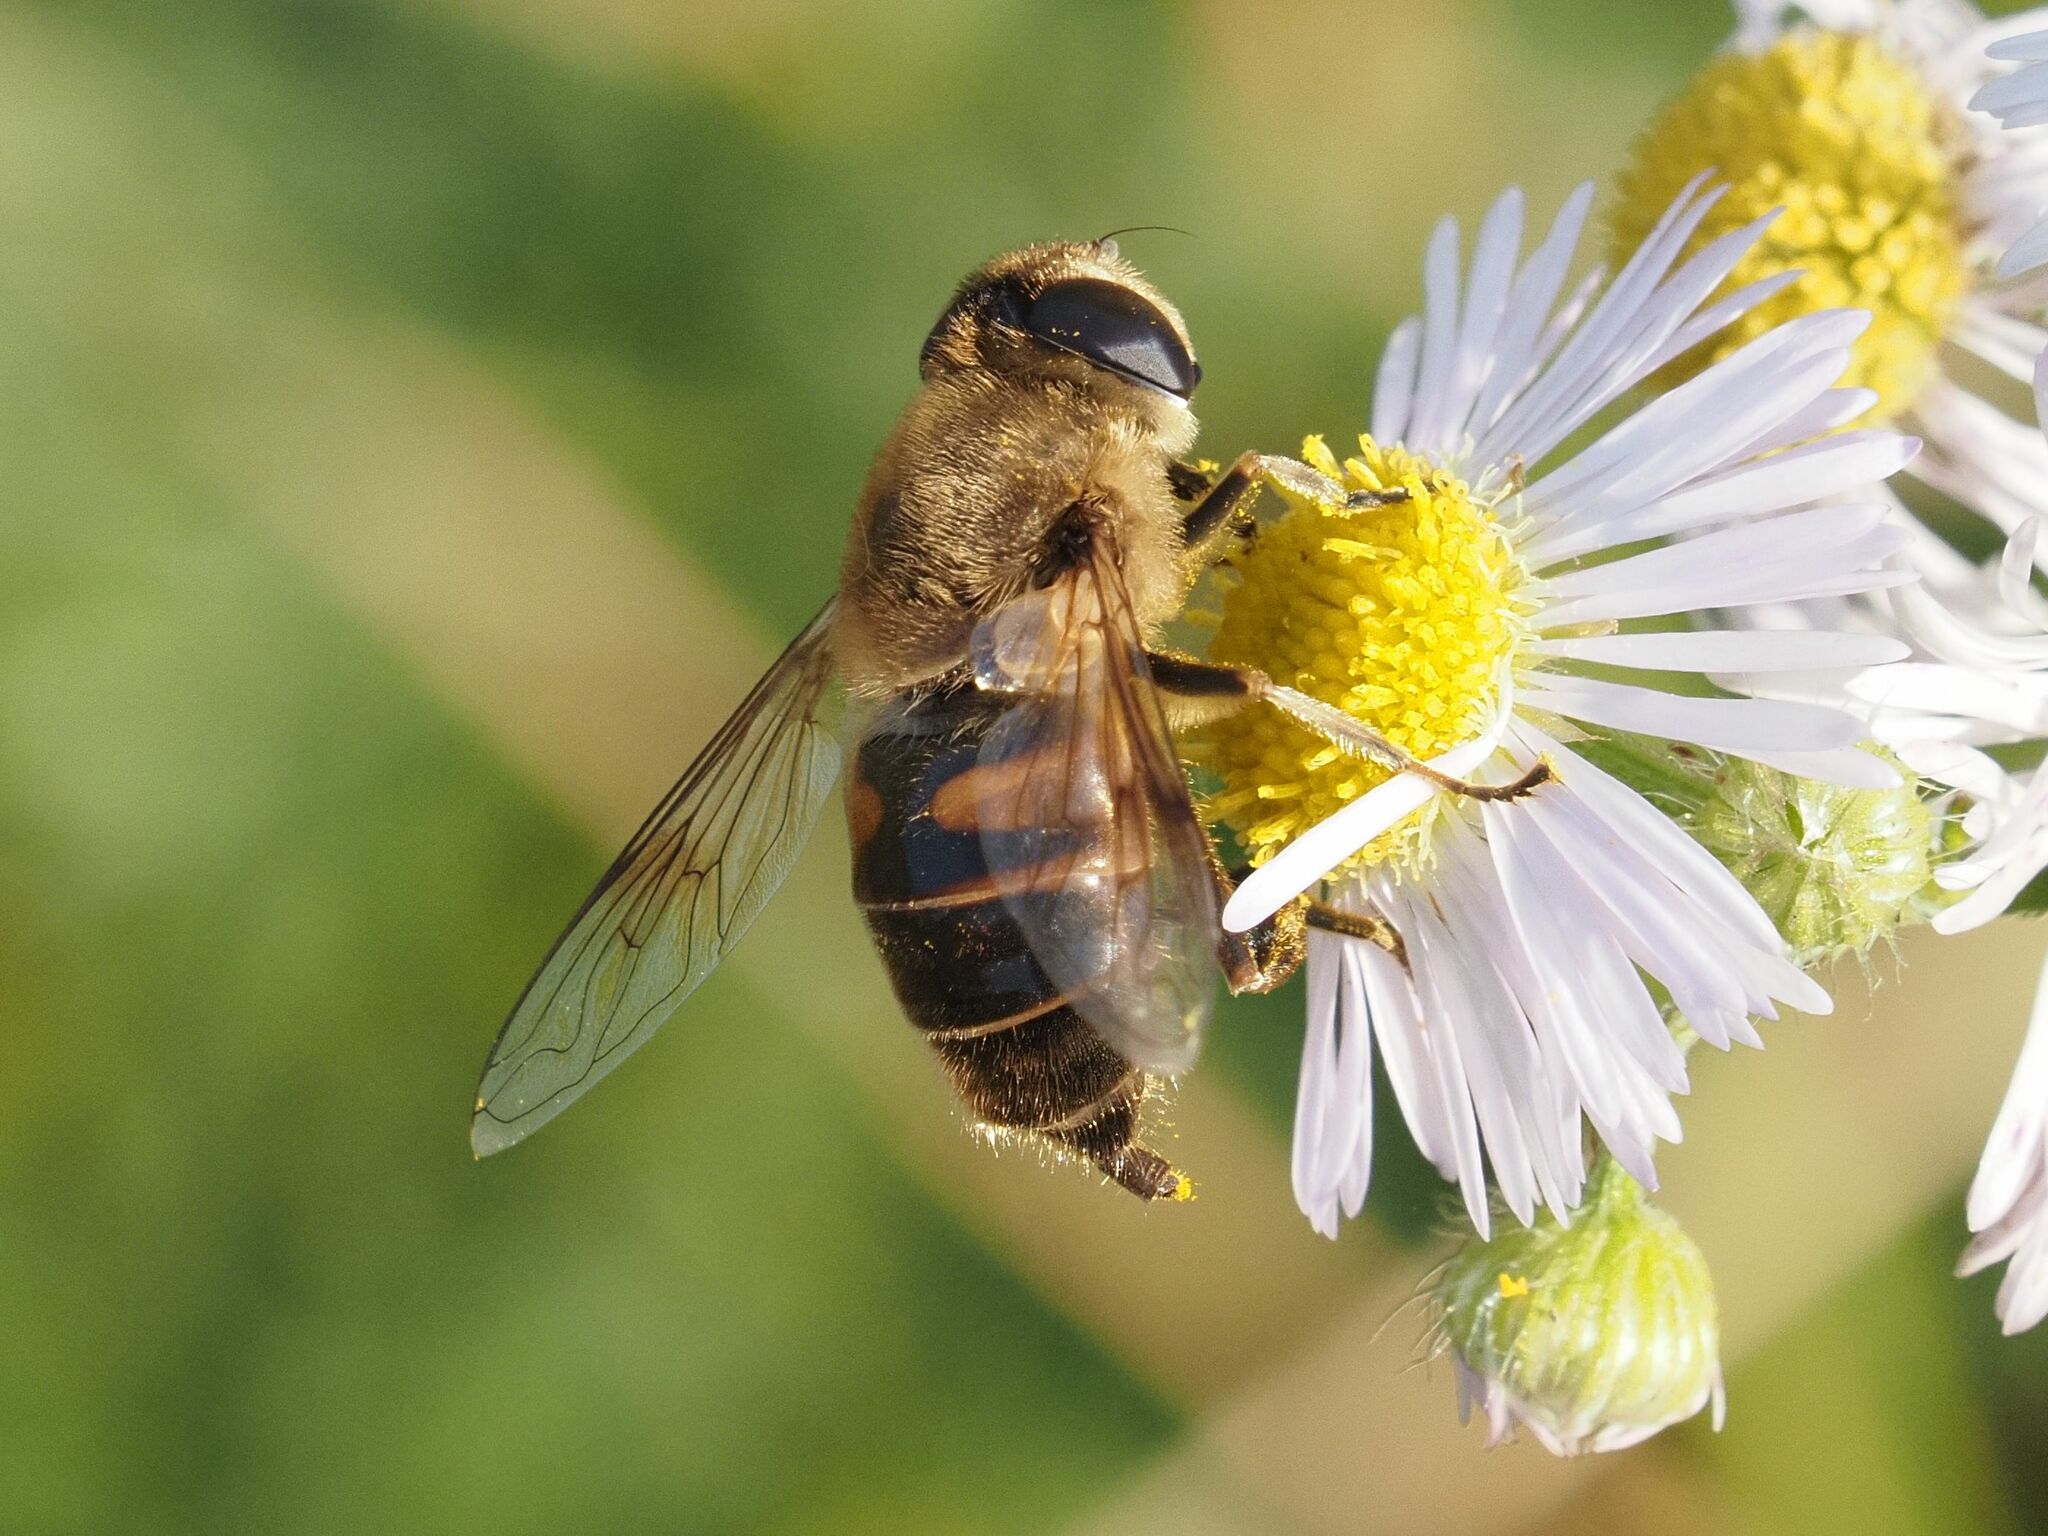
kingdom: Animalia
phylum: Arthropoda
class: Insecta
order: Diptera
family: Syrphidae
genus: Eristalis
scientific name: Eristalis tenax
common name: Drone fly
